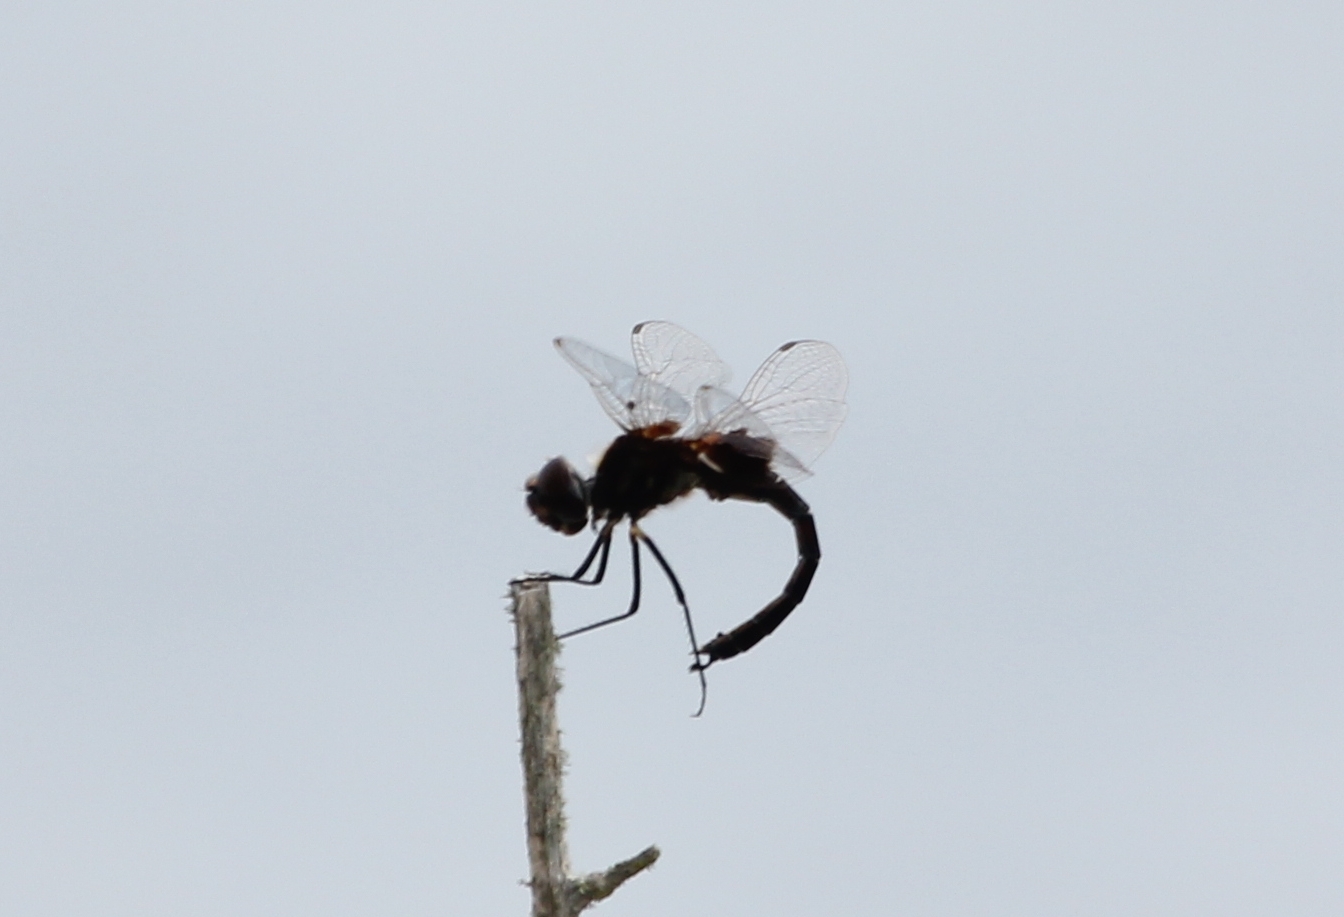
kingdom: Animalia
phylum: Arthropoda
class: Insecta
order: Odonata
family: Libellulidae
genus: Macrodiplax
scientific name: Macrodiplax balteata
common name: Marl pennant
